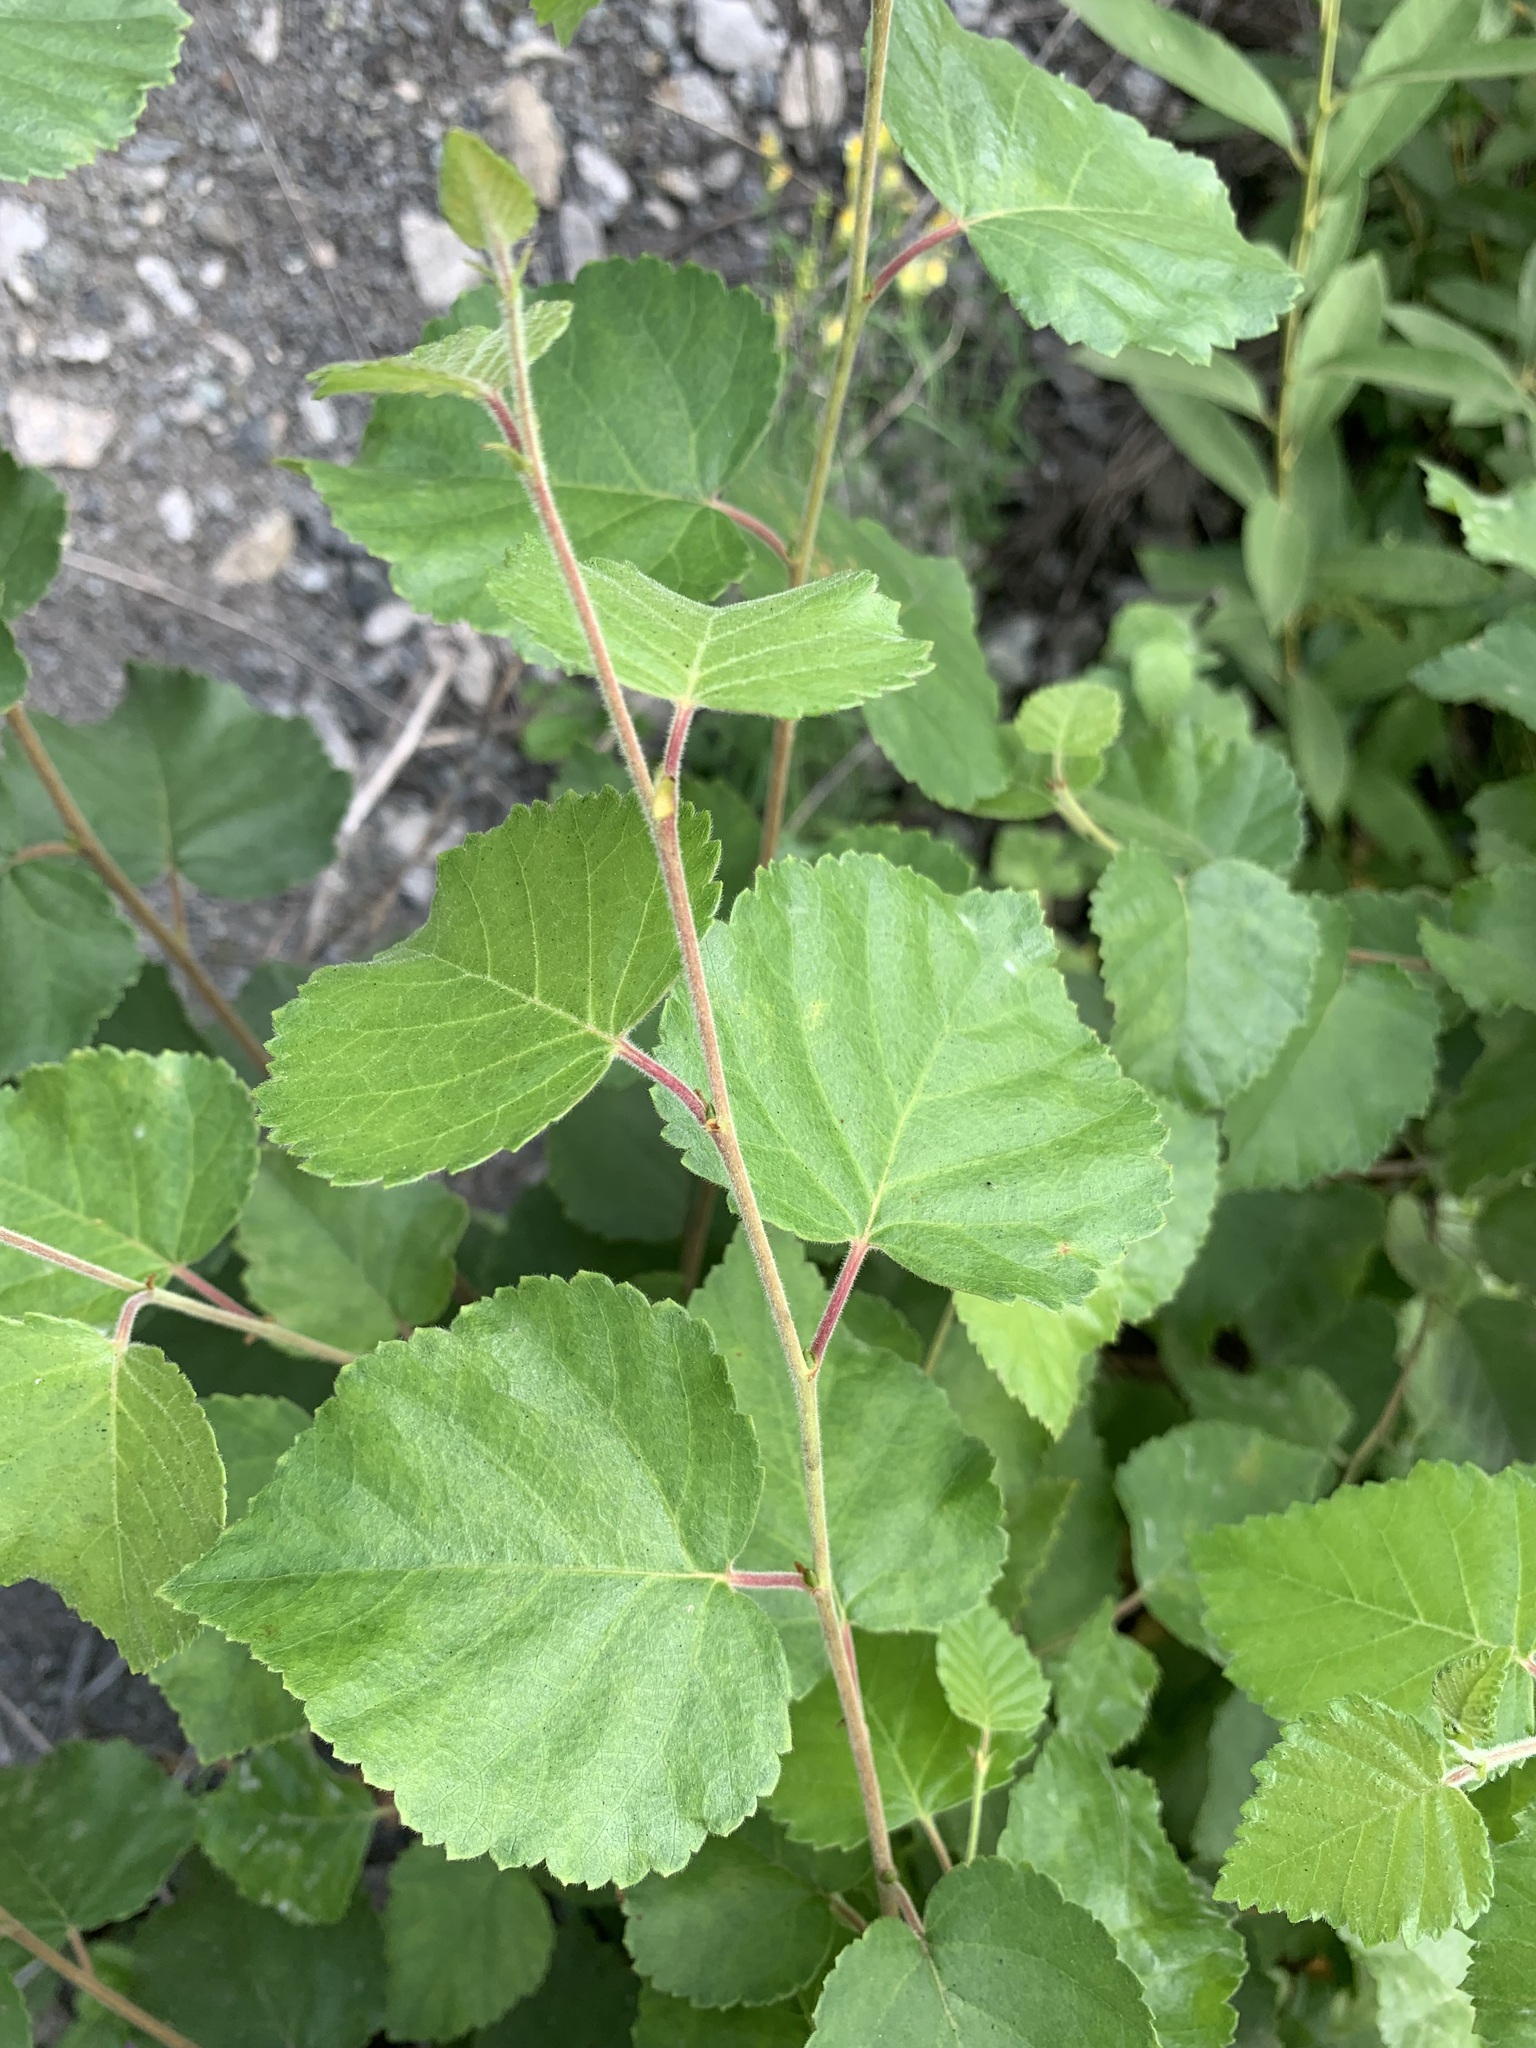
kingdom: Plantae
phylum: Tracheophyta
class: Magnoliopsida
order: Fagales
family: Betulaceae
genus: Betula
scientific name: Betula pubescens
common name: Downy birch
